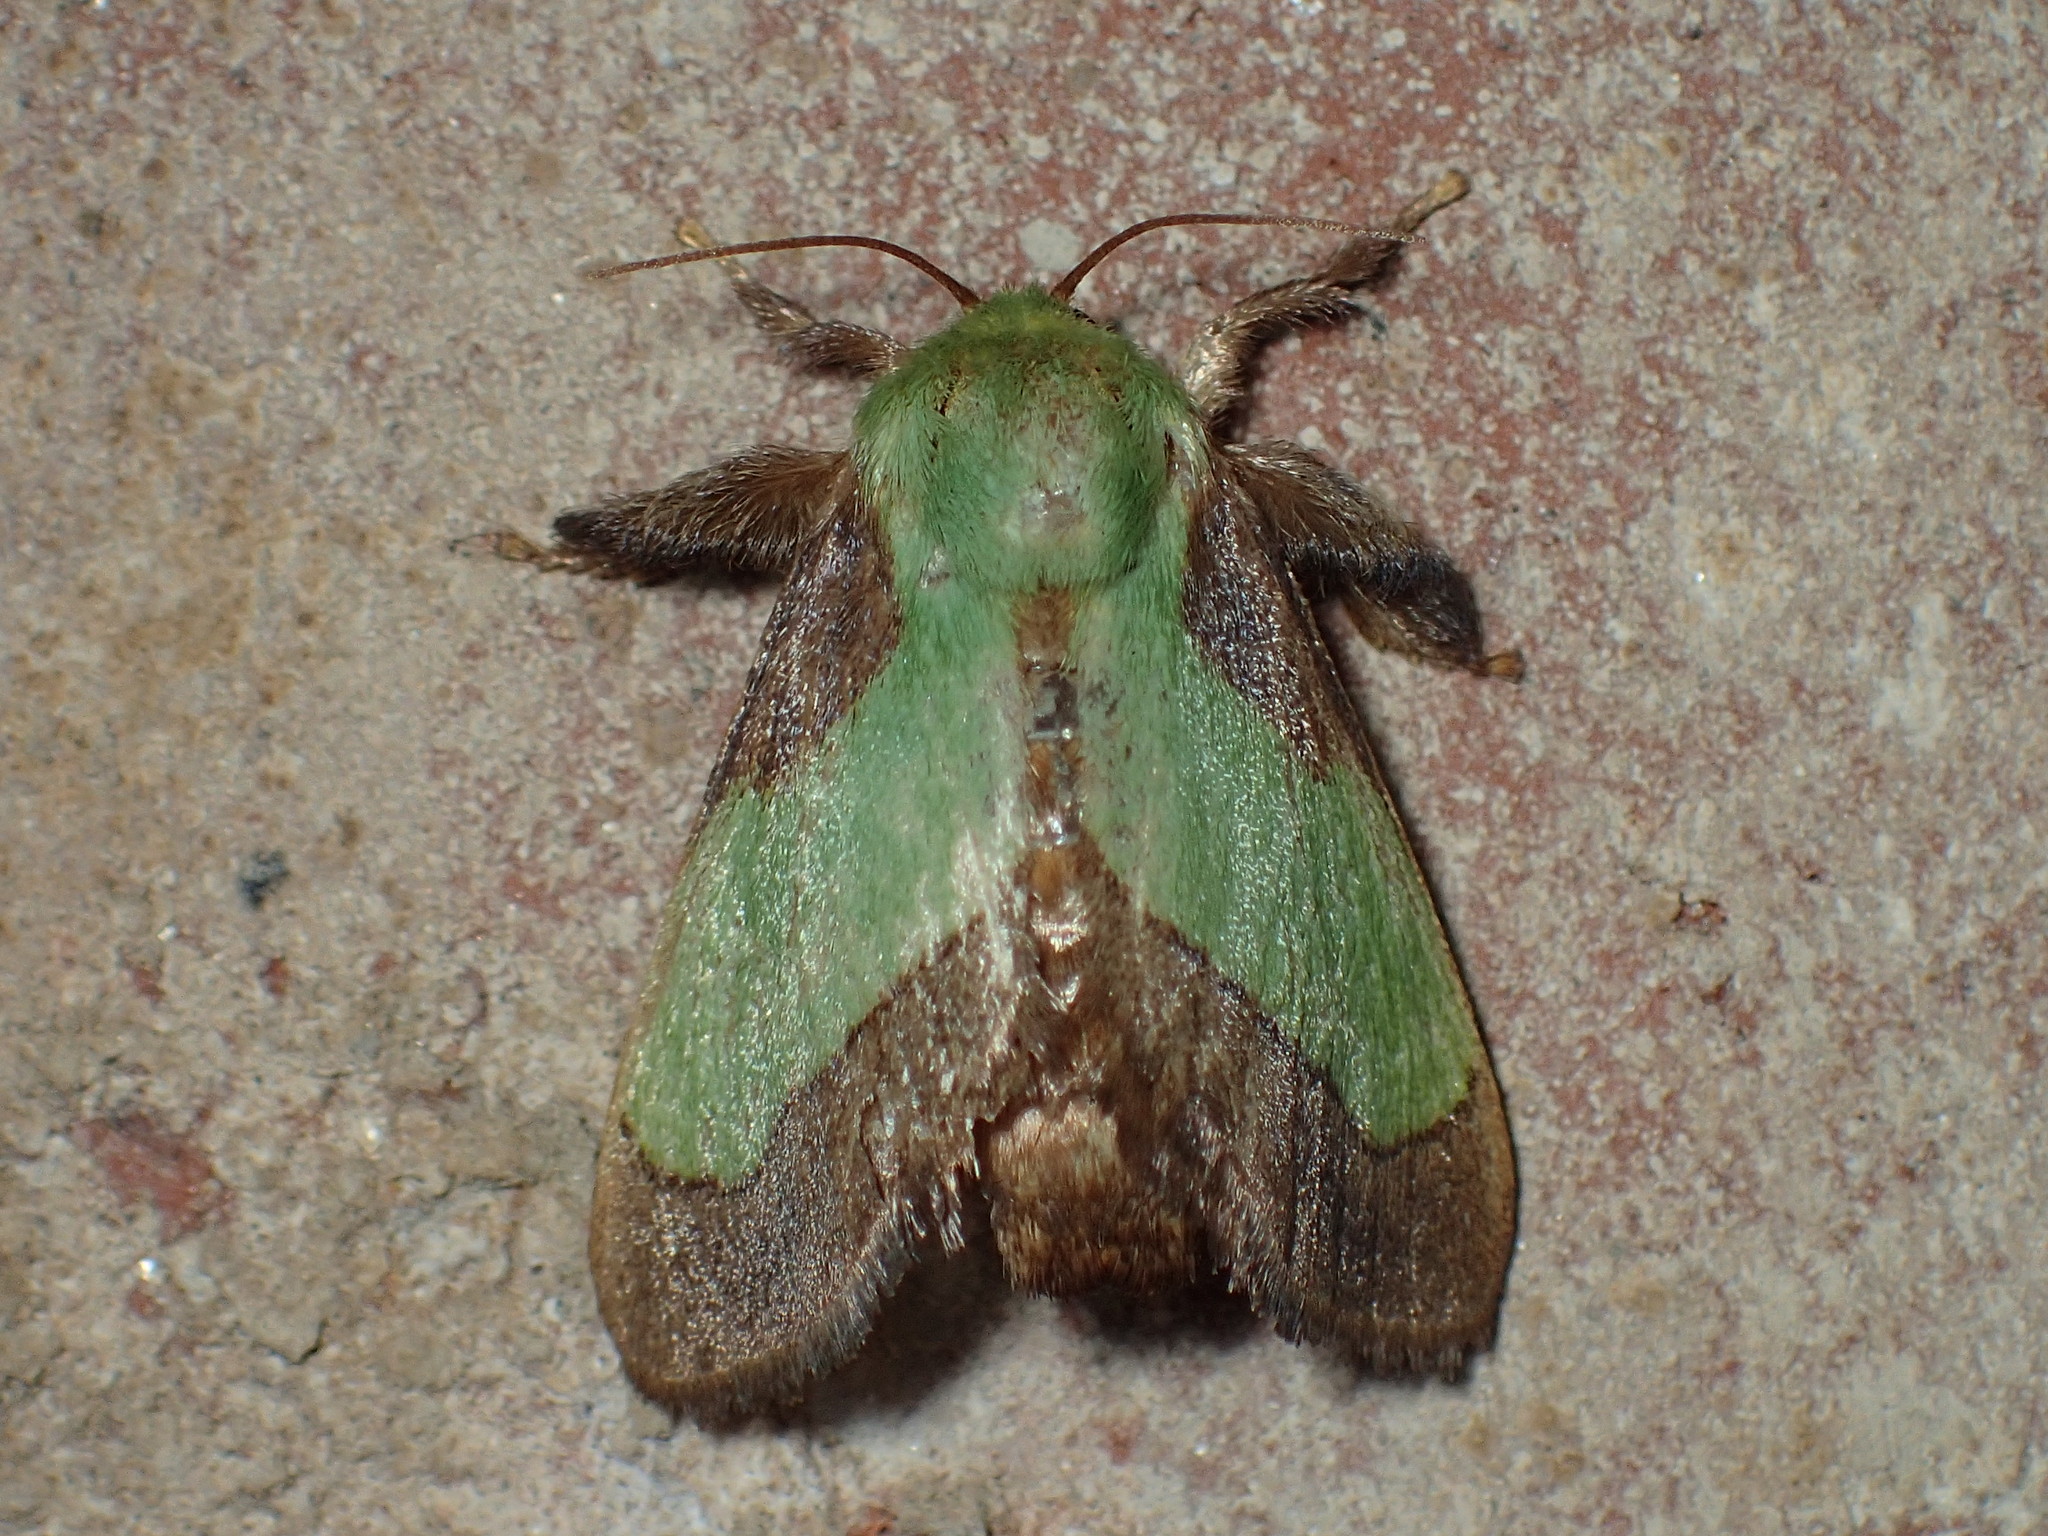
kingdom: Animalia
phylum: Arthropoda
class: Insecta
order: Lepidoptera
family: Limacodidae
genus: Parasa
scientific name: Parasa chloris
